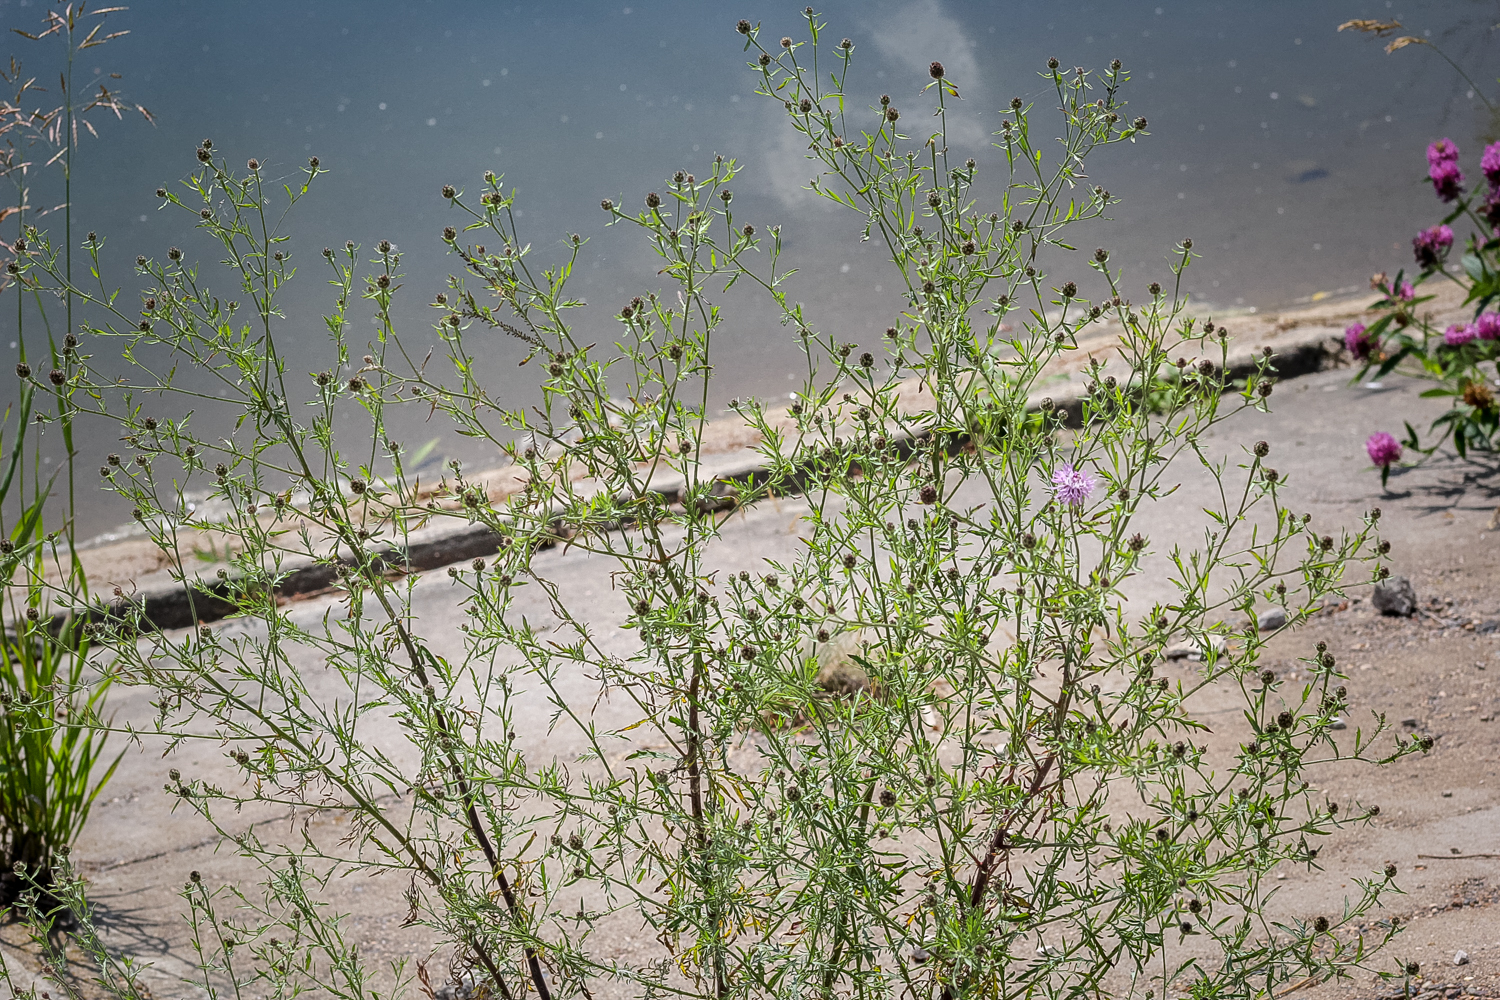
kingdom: Plantae
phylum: Tracheophyta
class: Magnoliopsida
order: Asterales
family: Asteraceae
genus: Centaurea
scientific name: Centaurea stoebe
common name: Spotted knapweed
